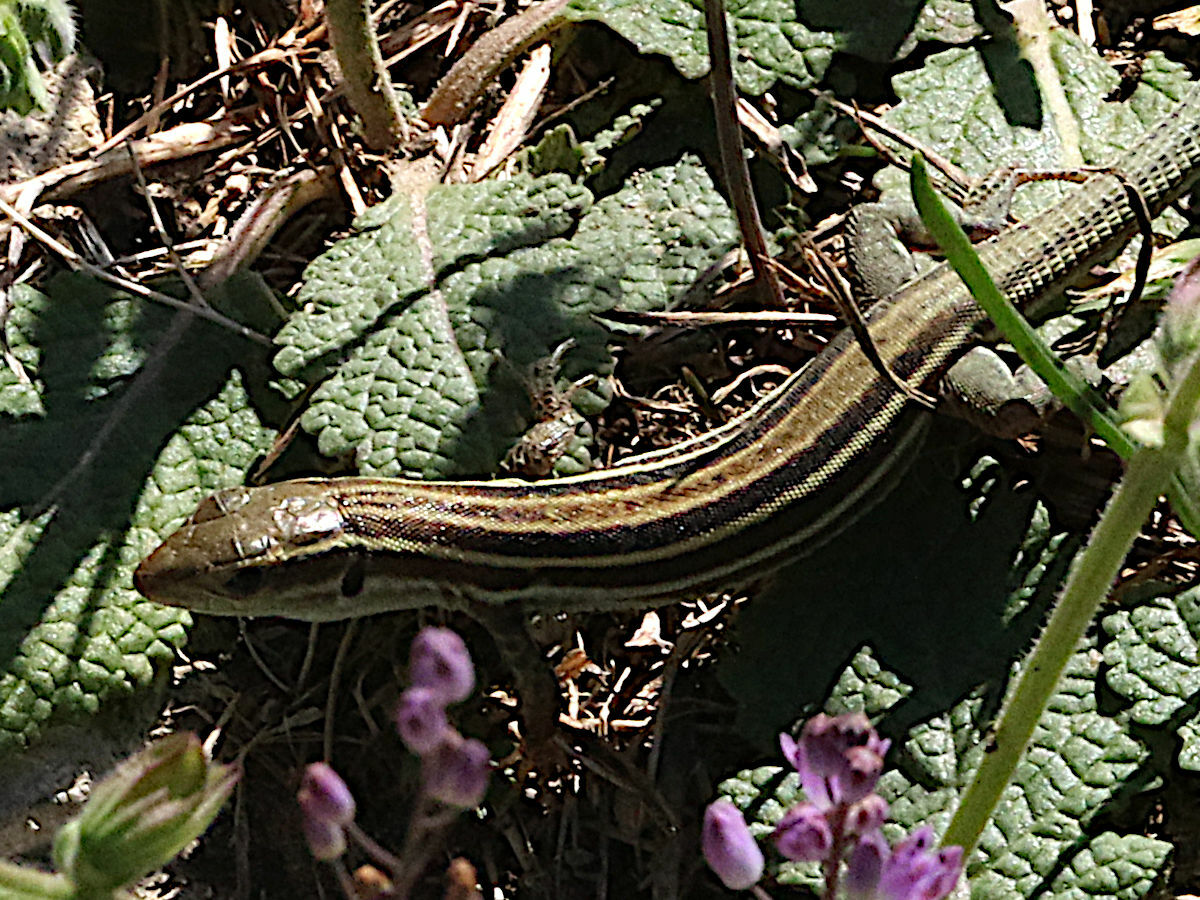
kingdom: Animalia
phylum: Chordata
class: Squamata
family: Lacertidae
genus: Podarcis
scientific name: Podarcis peloponnesiacus
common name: Peloponnese wall lizard
